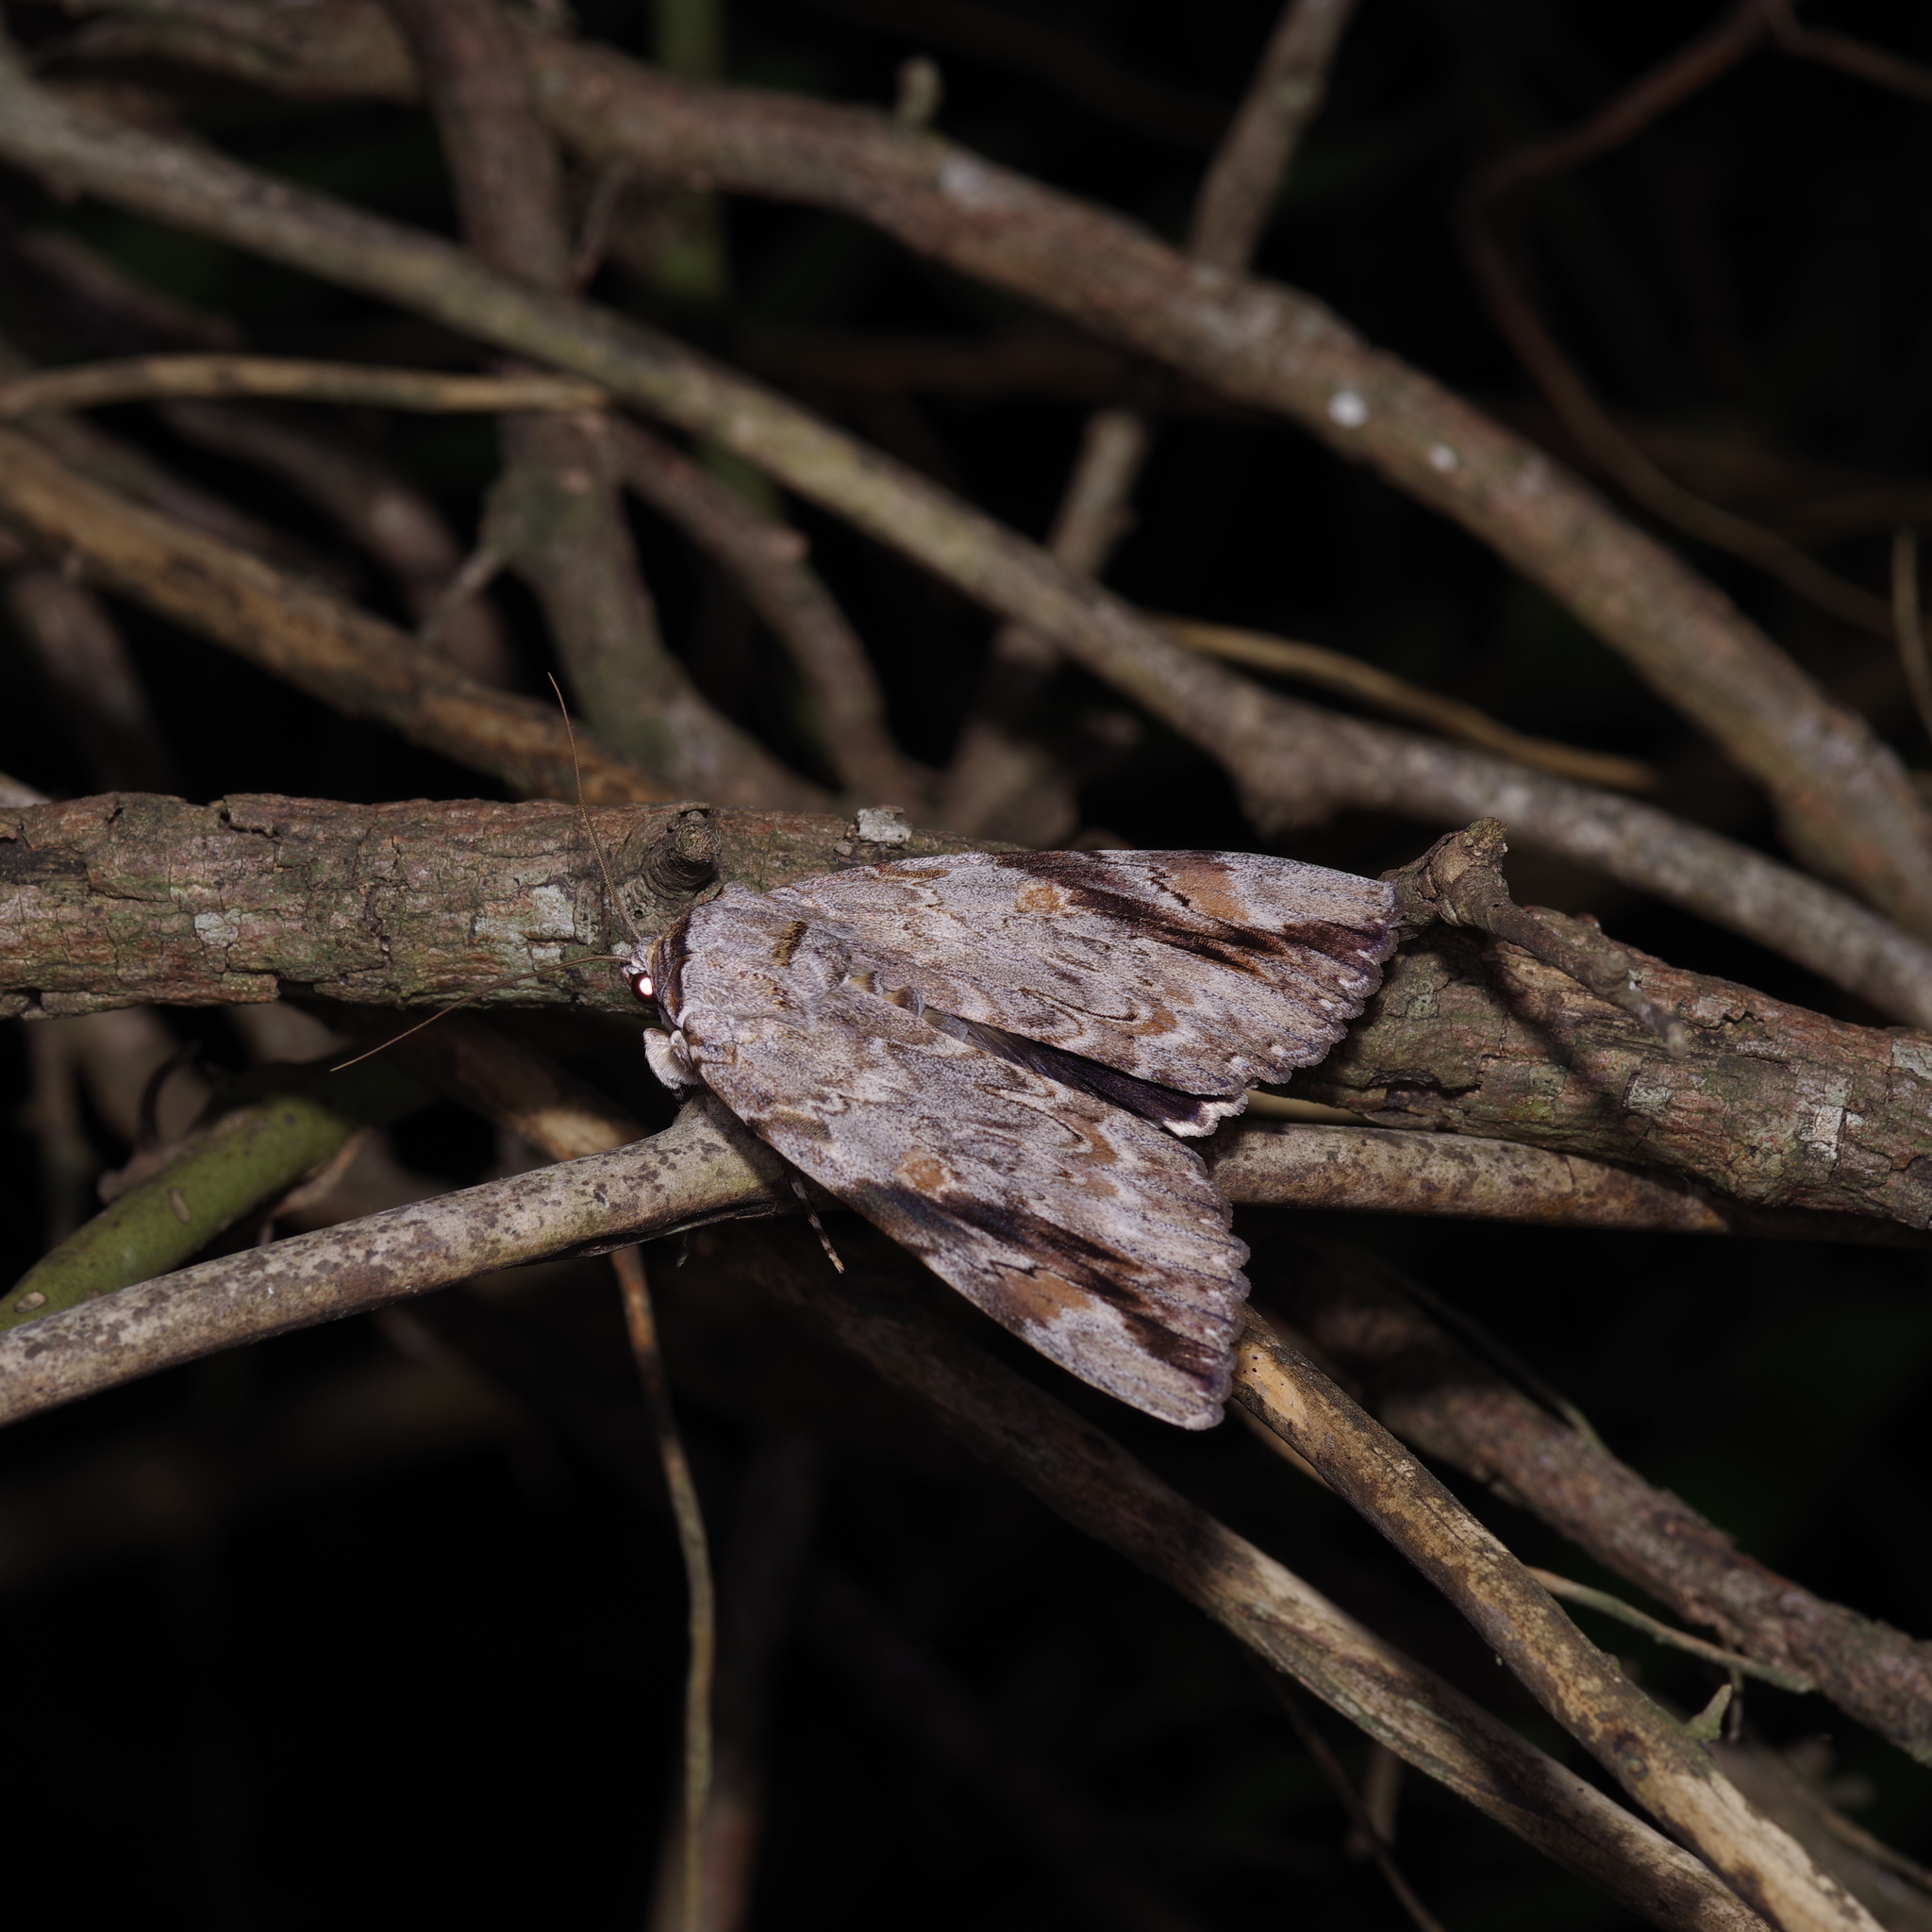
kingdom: Animalia
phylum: Arthropoda
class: Insecta
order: Lepidoptera
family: Erebidae
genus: Catocala
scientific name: Catocala maestosa
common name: Sad underwing
